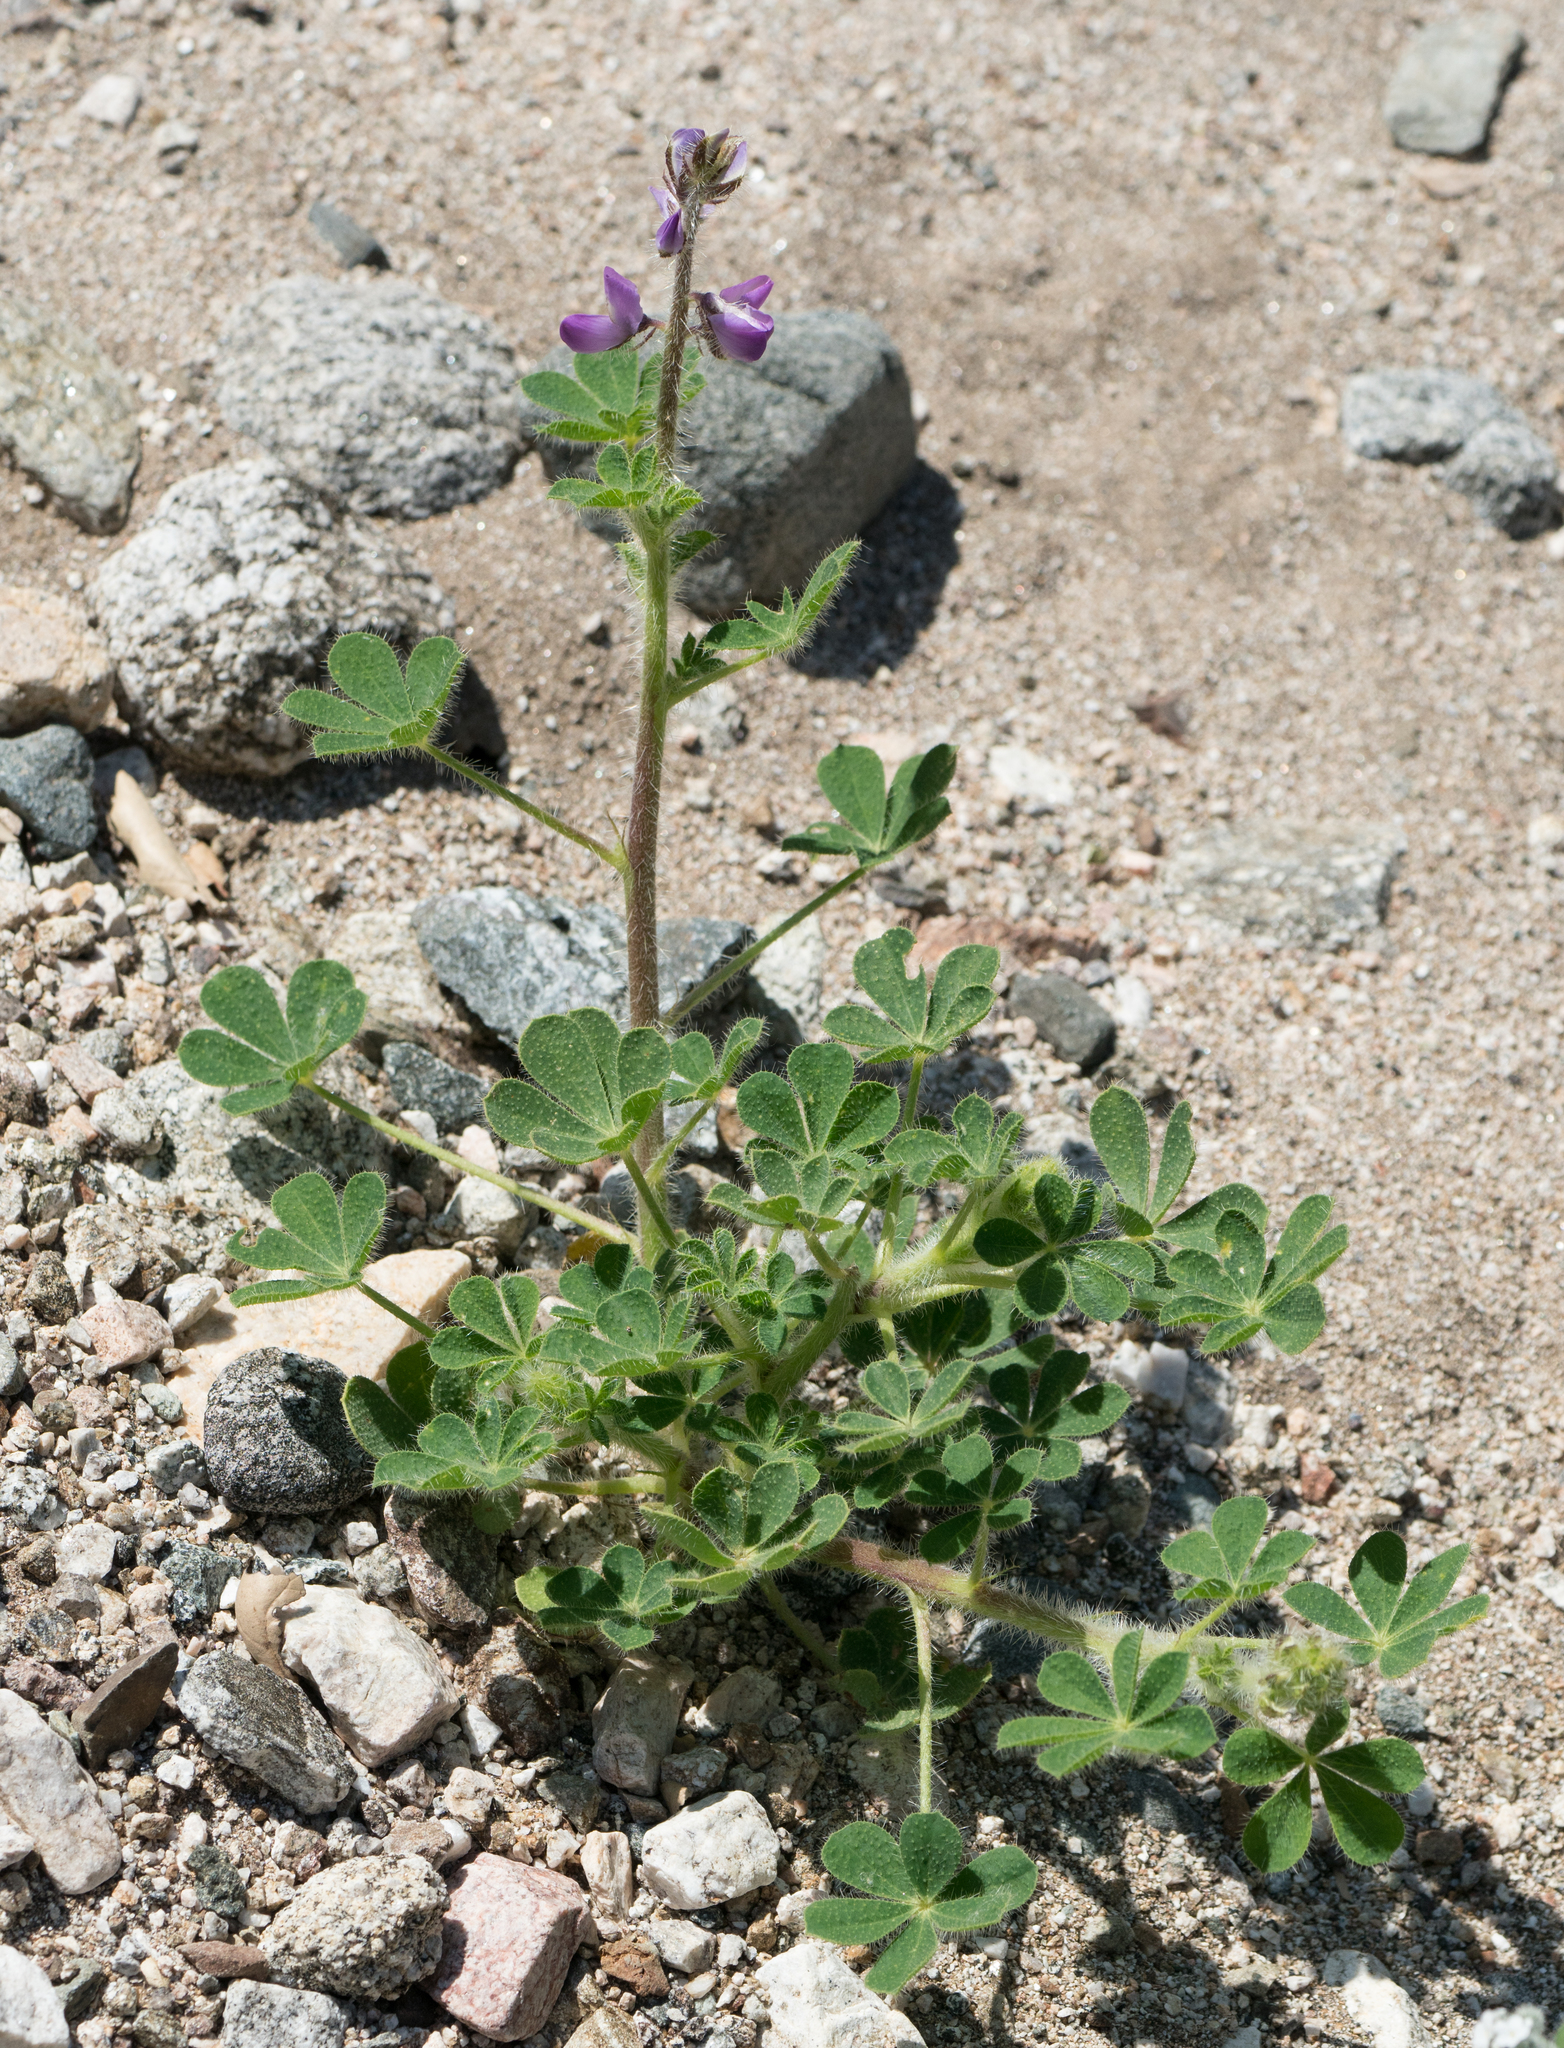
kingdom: Plantae
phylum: Tracheophyta
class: Magnoliopsida
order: Fabales
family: Fabaceae
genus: Lupinus
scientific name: Lupinus hirsutissimus
